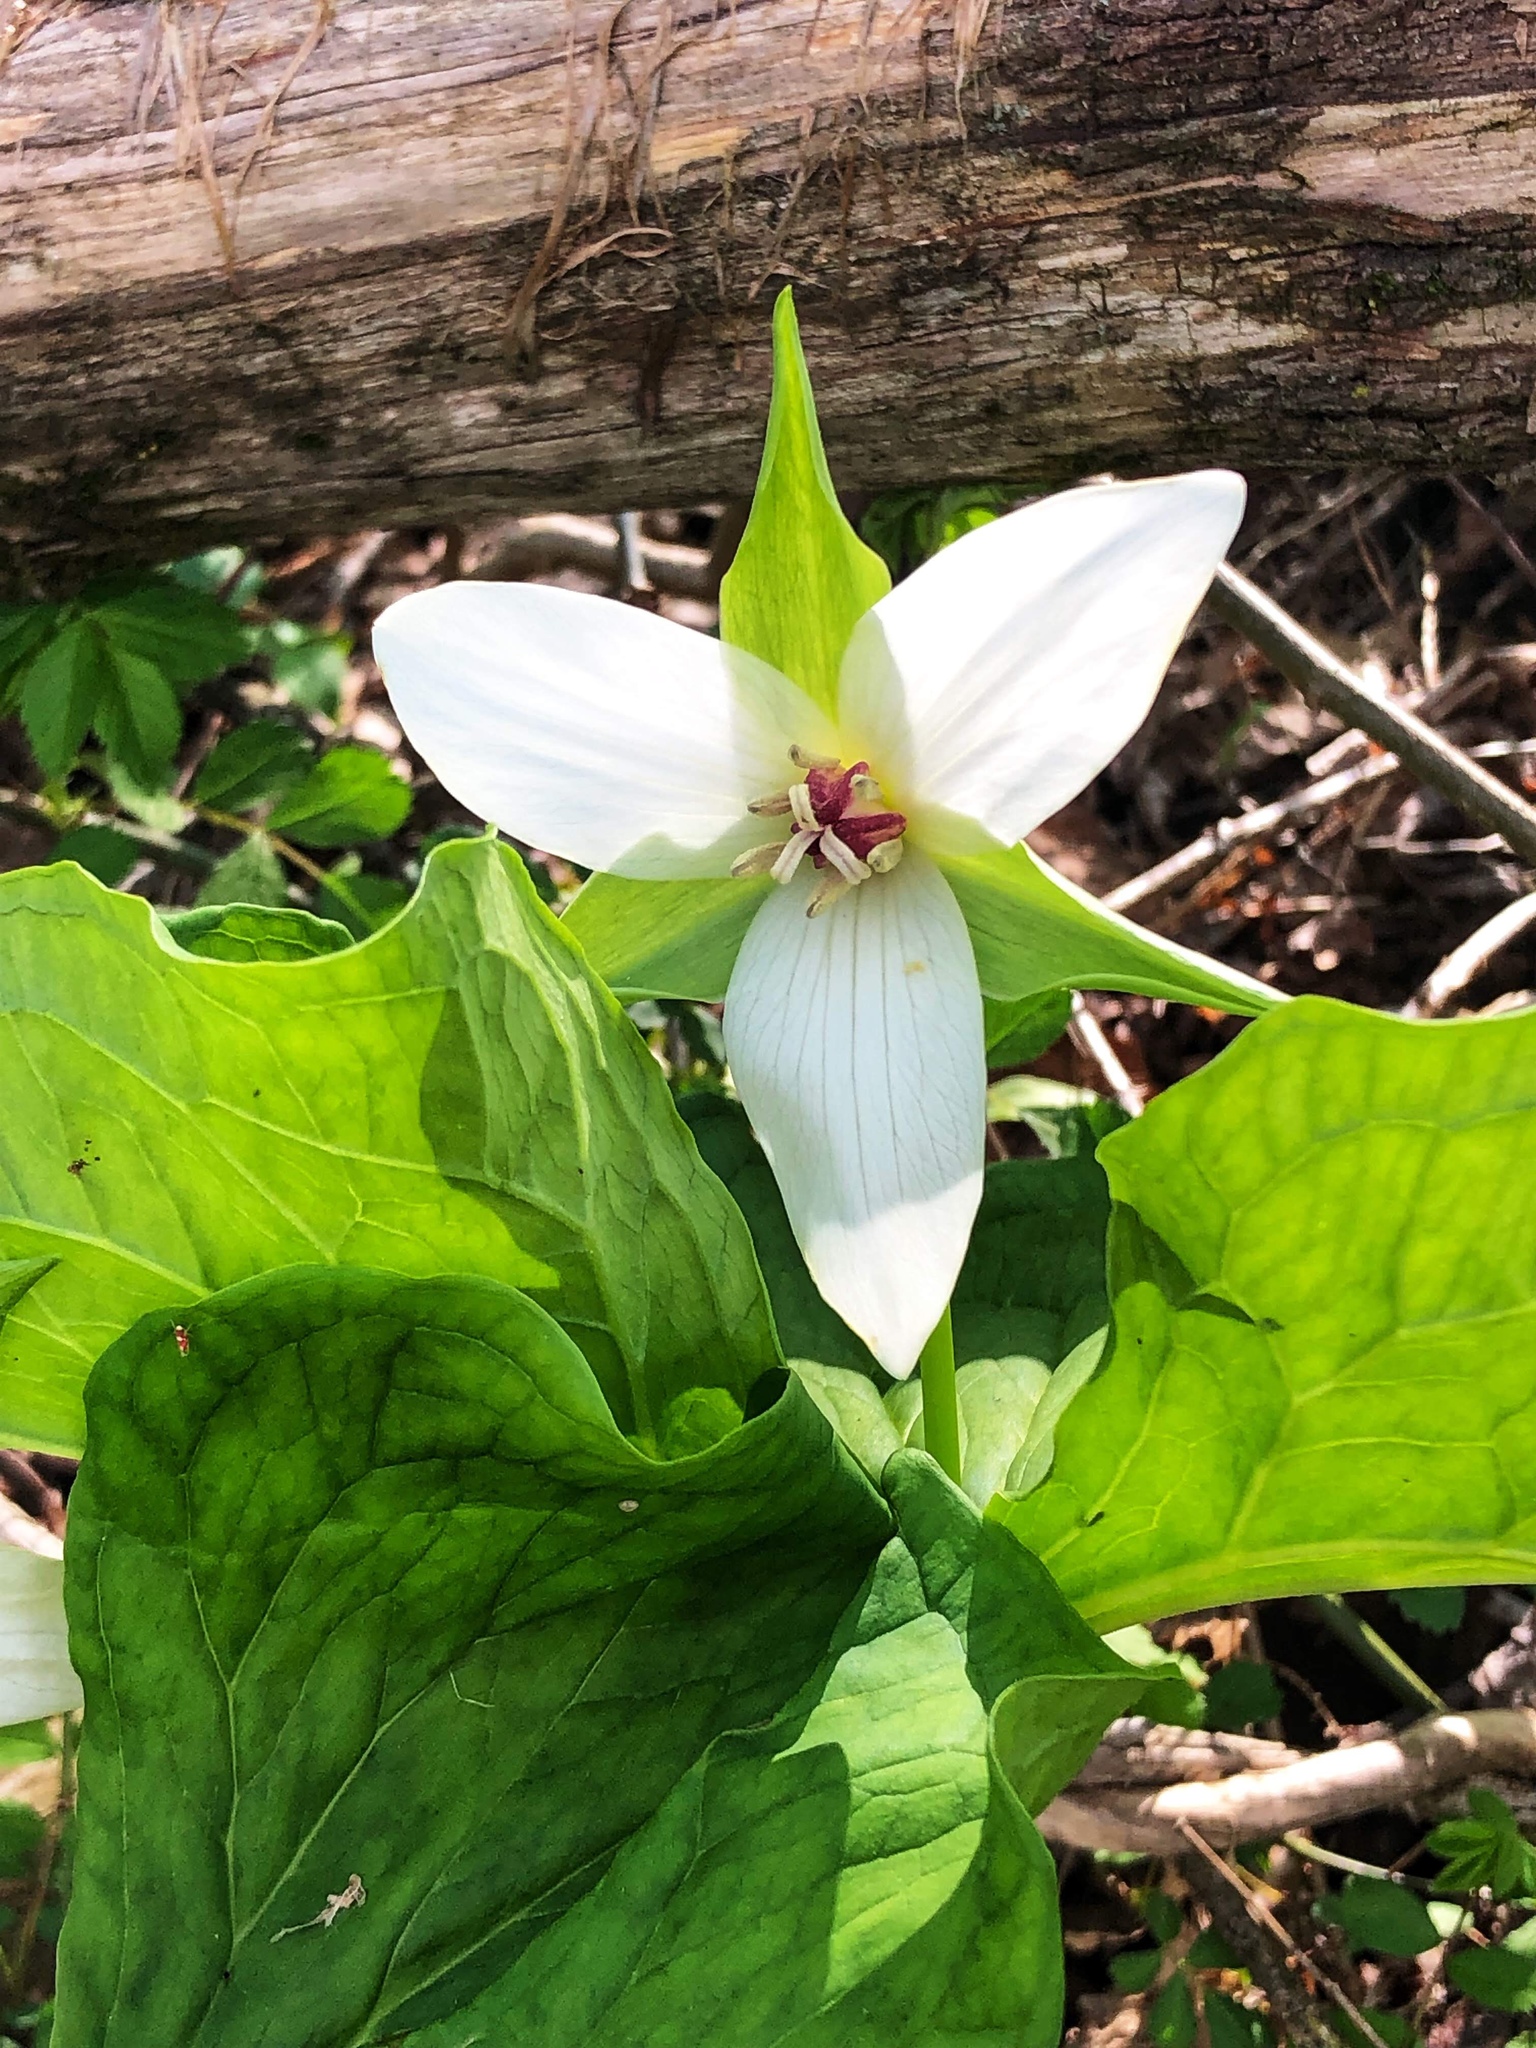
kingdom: Plantae
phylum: Tracheophyta
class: Liliopsida
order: Liliales
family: Melanthiaceae
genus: Trillium
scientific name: Trillium erectum
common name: Purple trillium
